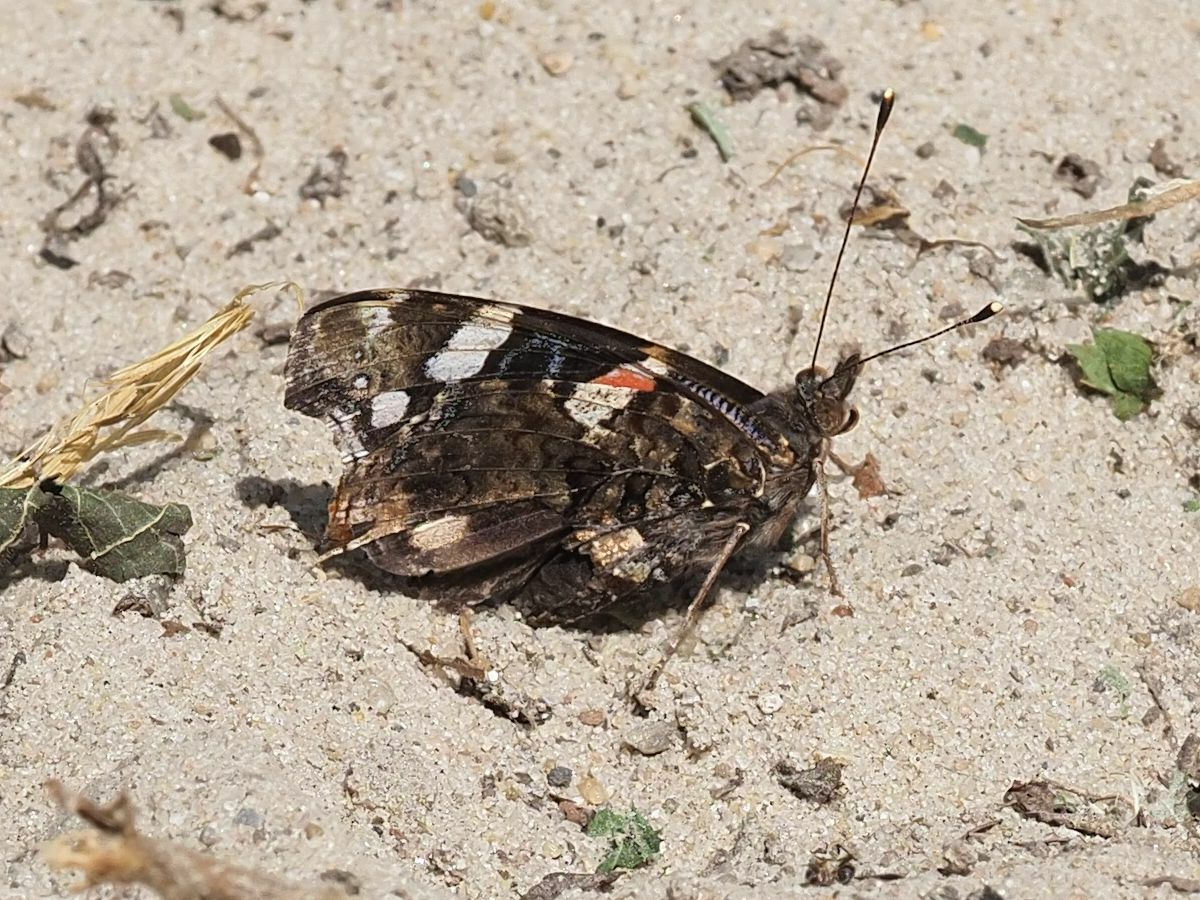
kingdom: Animalia
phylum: Arthropoda
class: Insecta
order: Lepidoptera
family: Nymphalidae
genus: Vanessa
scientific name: Vanessa atalanta
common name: Red admiral
